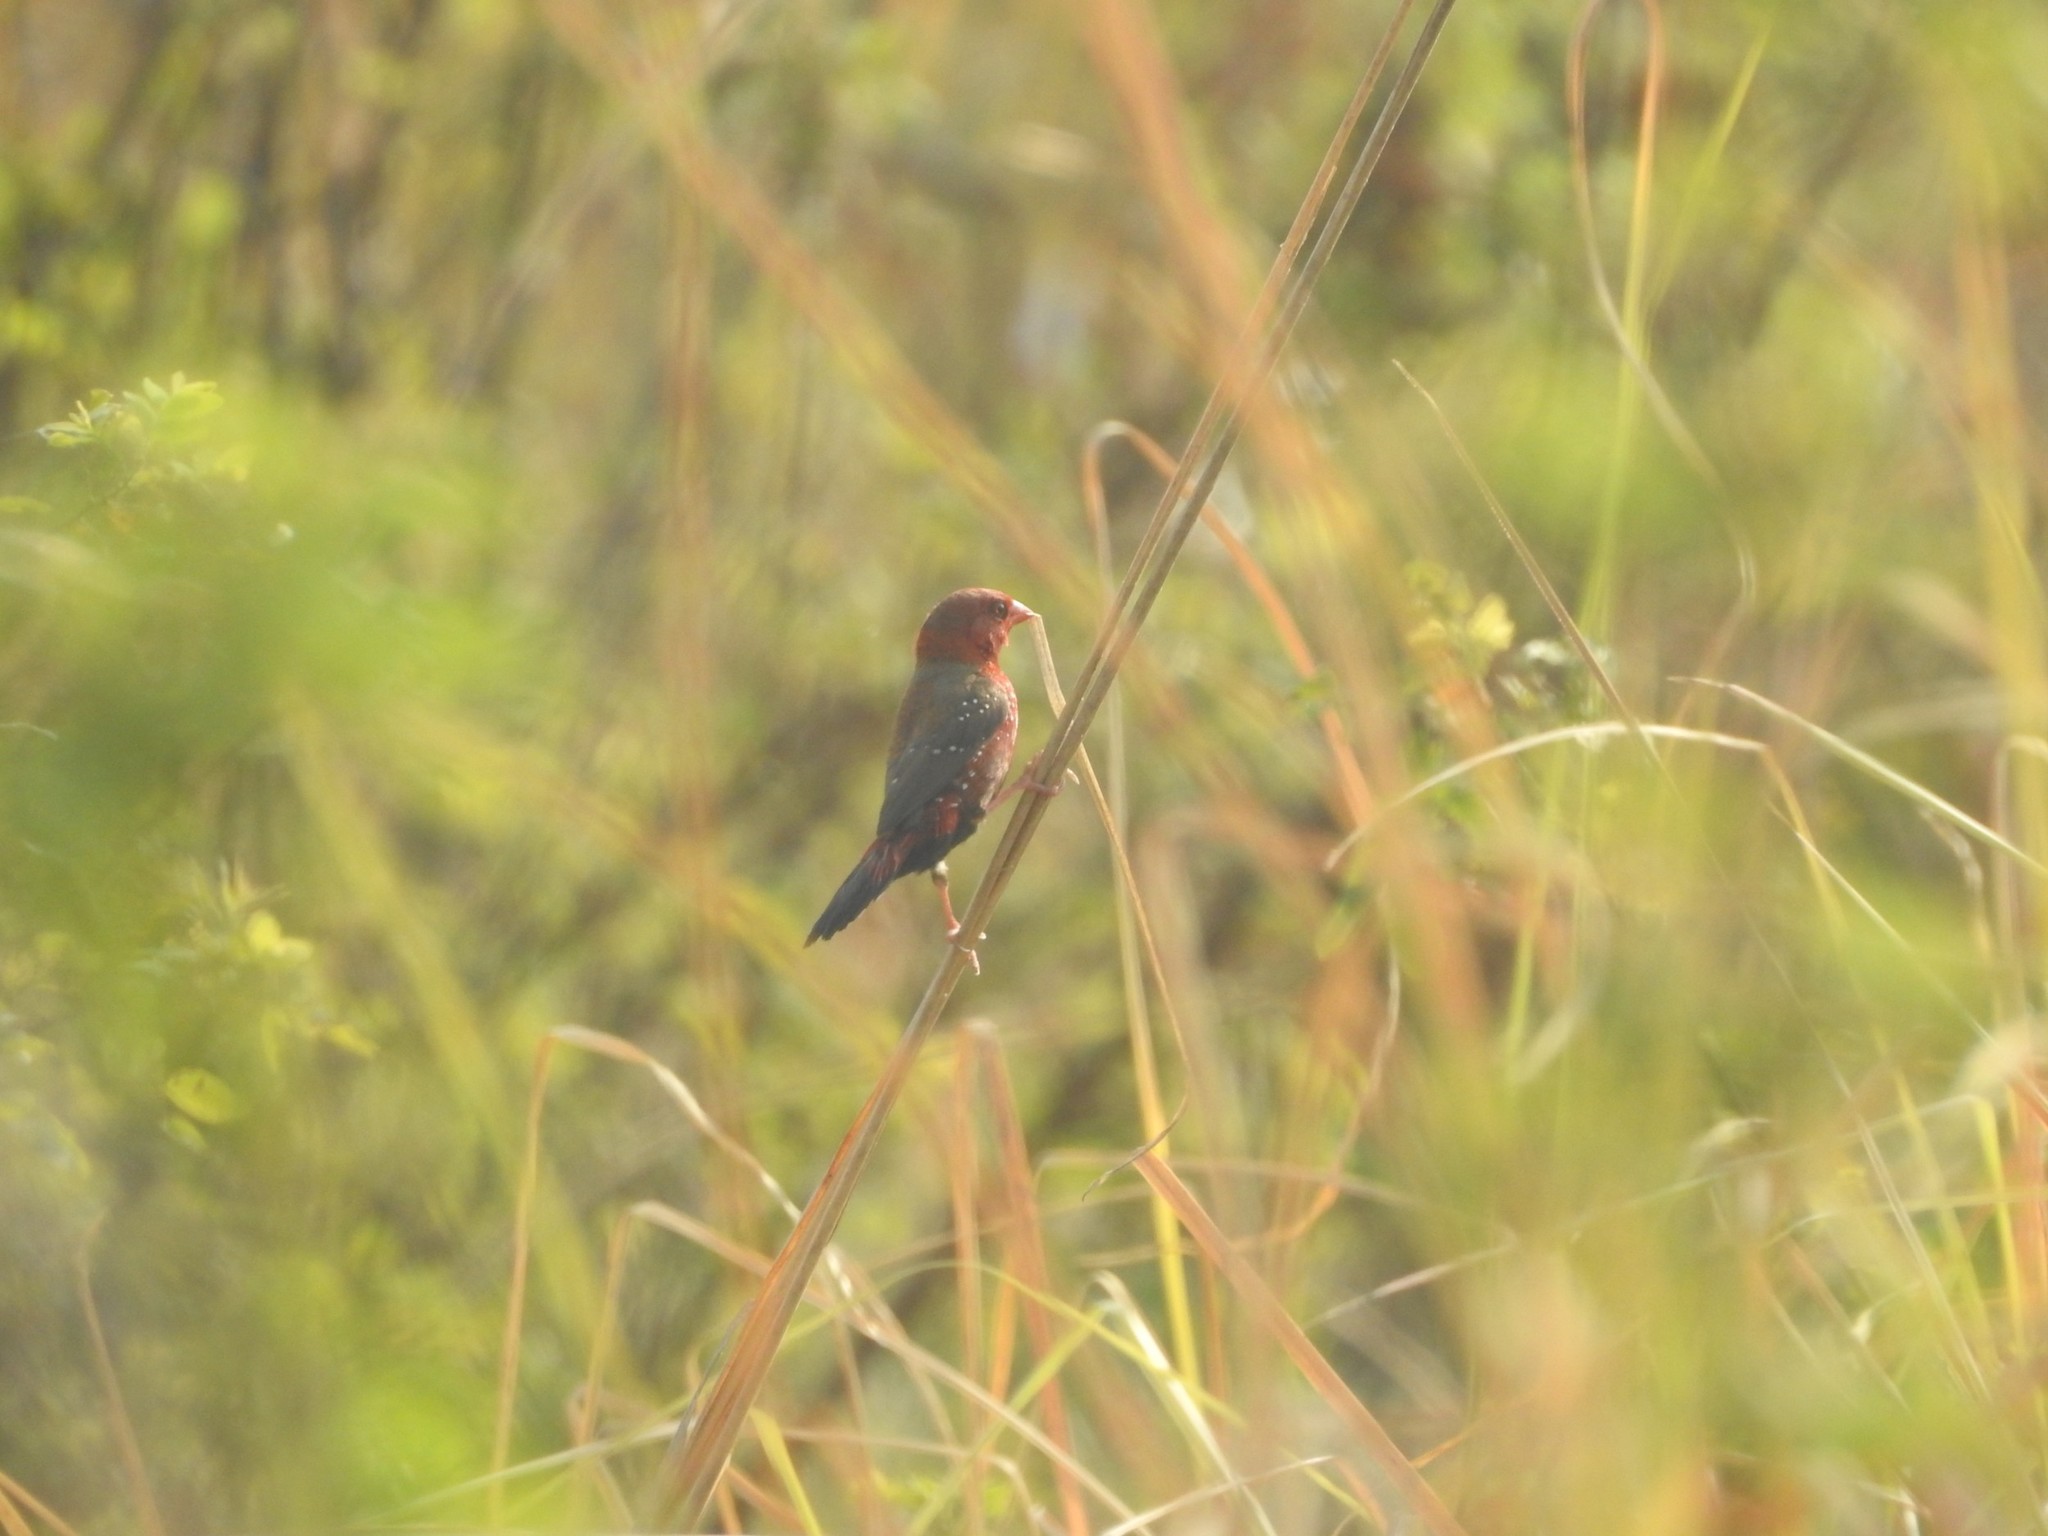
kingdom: Animalia
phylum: Chordata
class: Aves
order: Passeriformes
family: Estrildidae
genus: Amandava
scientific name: Amandava amandava
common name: Red avadavat
